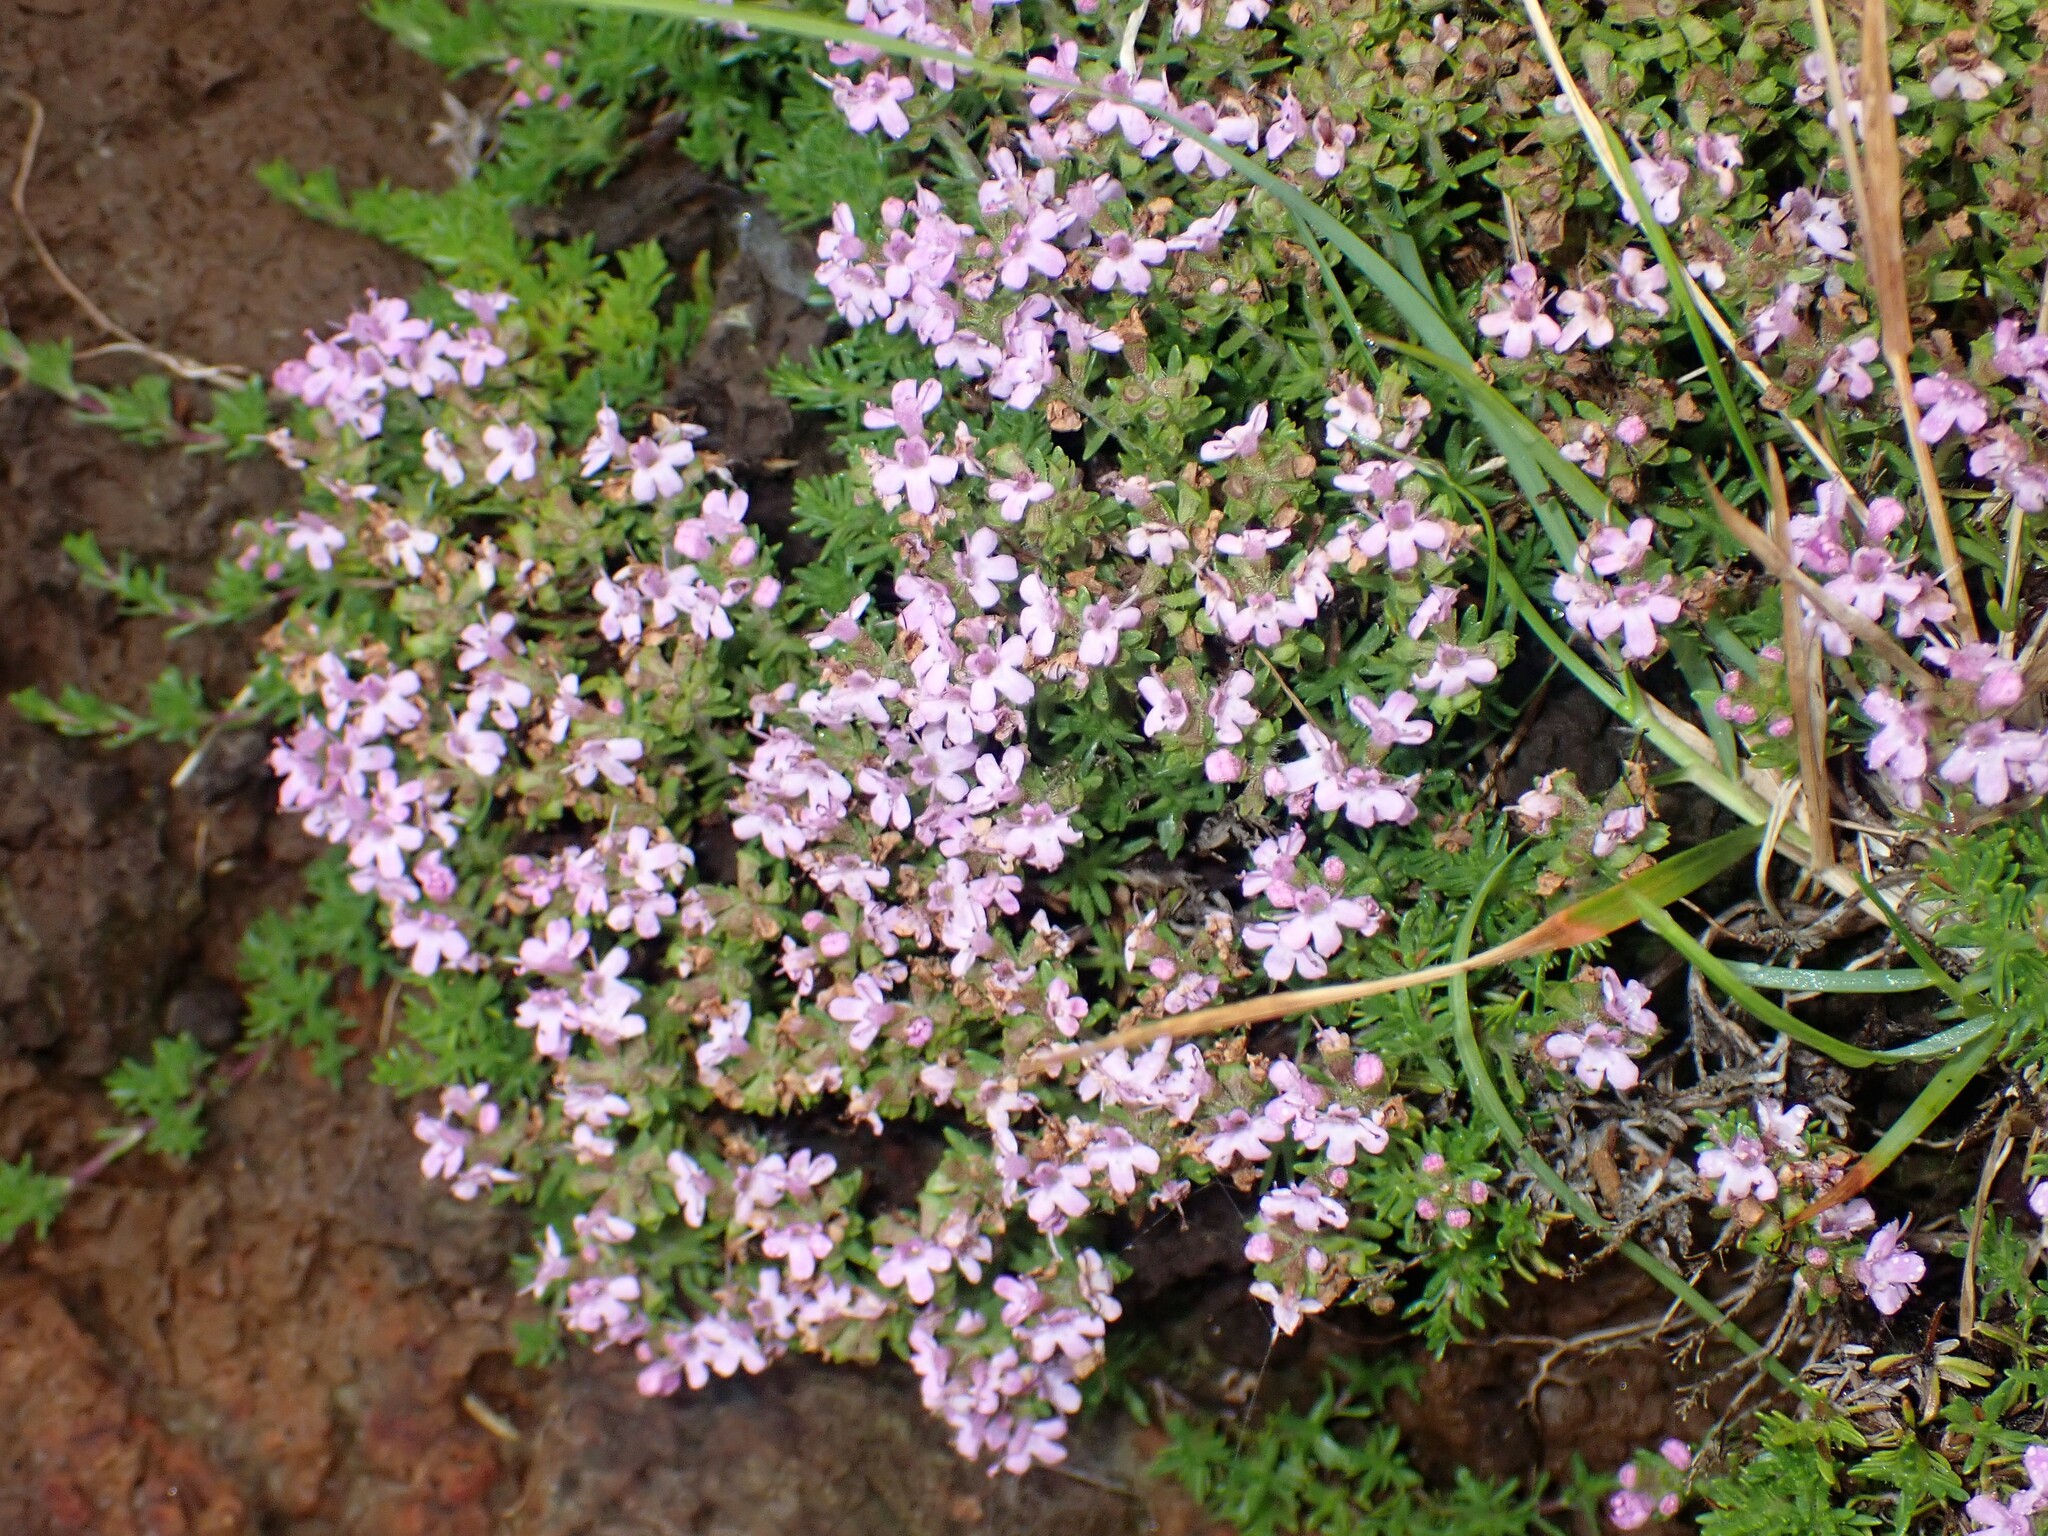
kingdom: Plantae
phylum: Tracheophyta
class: Magnoliopsida
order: Lamiales
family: Lamiaceae
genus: Thymus
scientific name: Thymus caespititius
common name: Azores thyme
